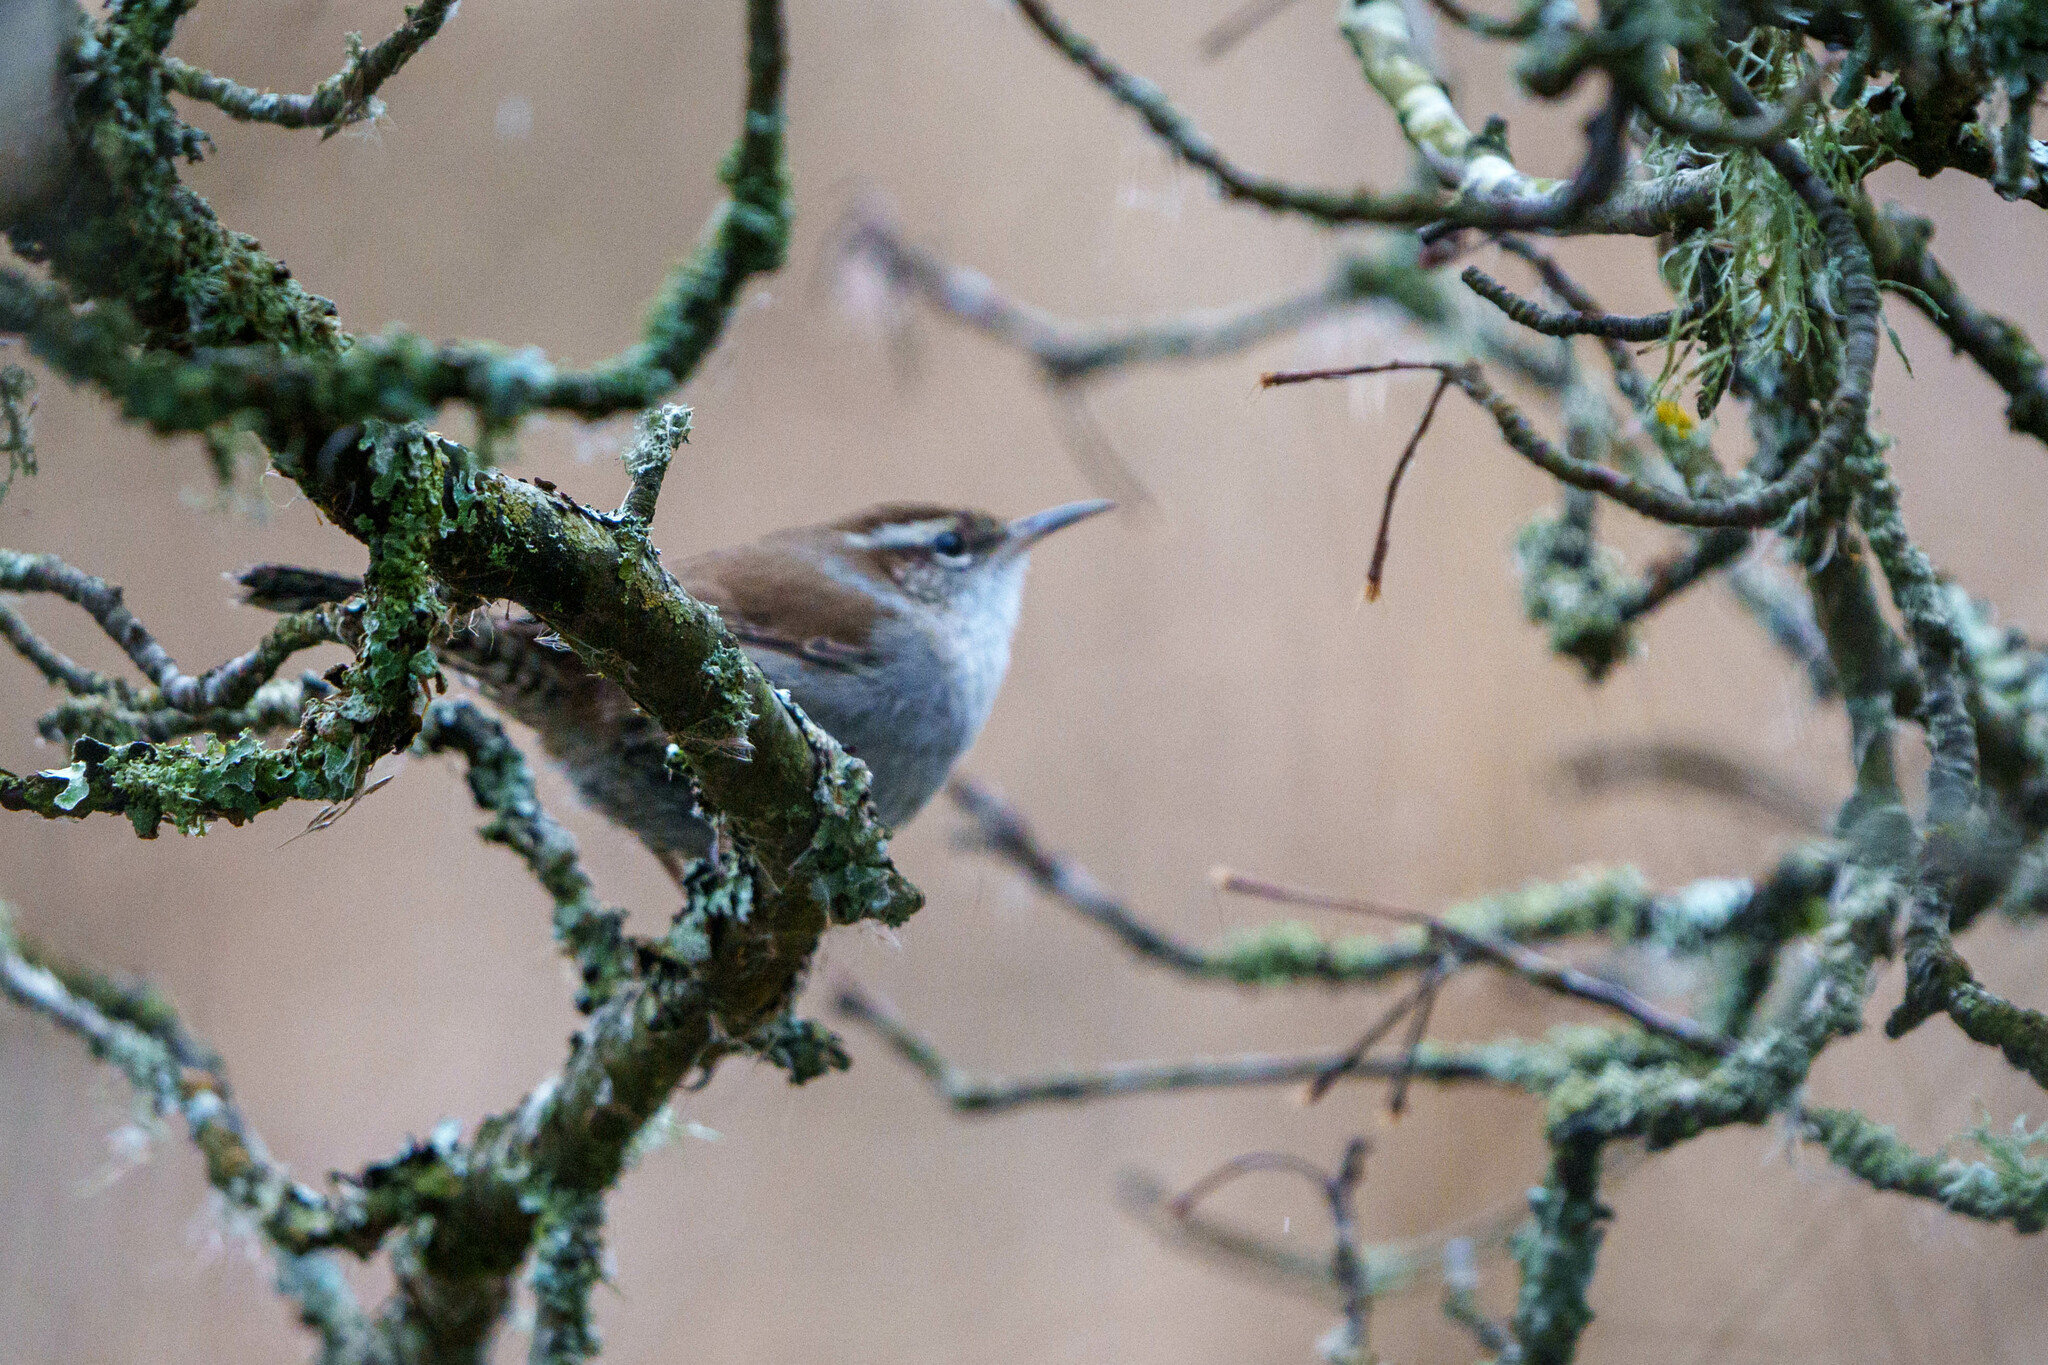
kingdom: Animalia
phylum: Chordata
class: Aves
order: Passeriformes
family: Troglodytidae
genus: Thryomanes
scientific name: Thryomanes bewickii
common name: Bewick's wren
